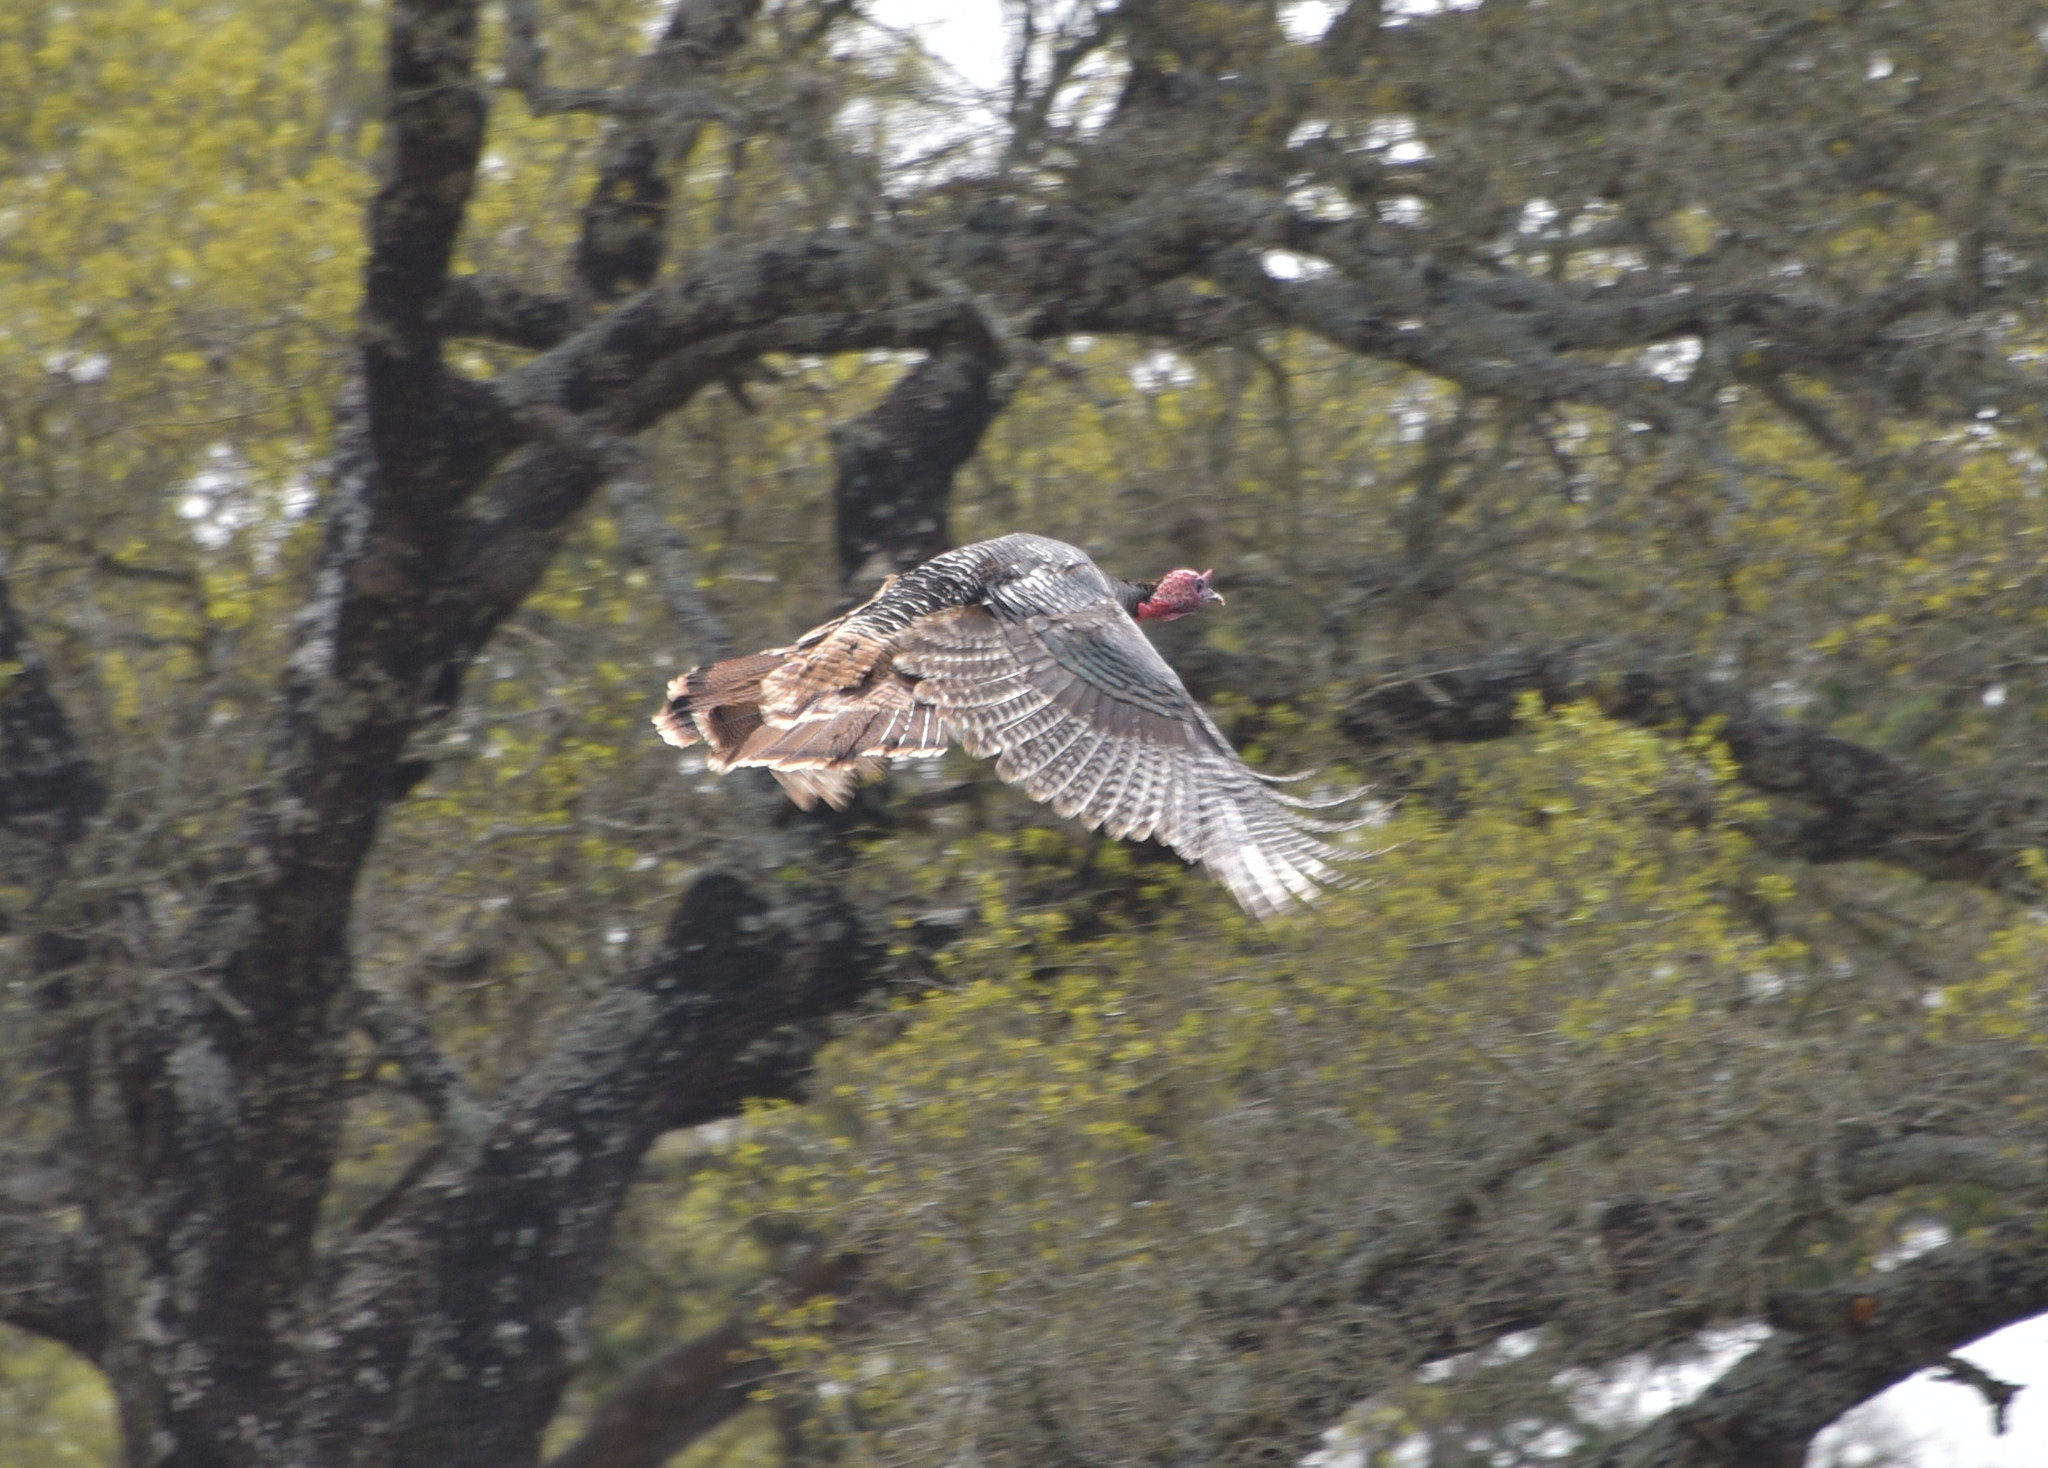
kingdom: Animalia
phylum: Chordata
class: Aves
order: Galliformes
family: Phasianidae
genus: Meleagris
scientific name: Meleagris gallopavo
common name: Wild turkey
